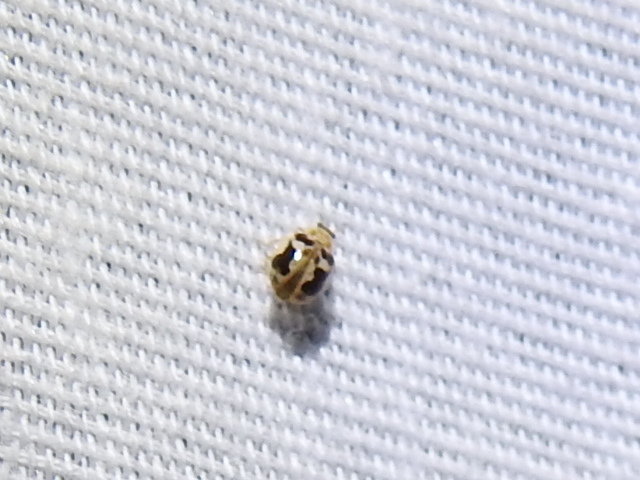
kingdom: Animalia
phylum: Arthropoda
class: Insecta
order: Coleoptera
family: Coccinellidae
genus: Psyllobora
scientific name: Psyllobora renifer
